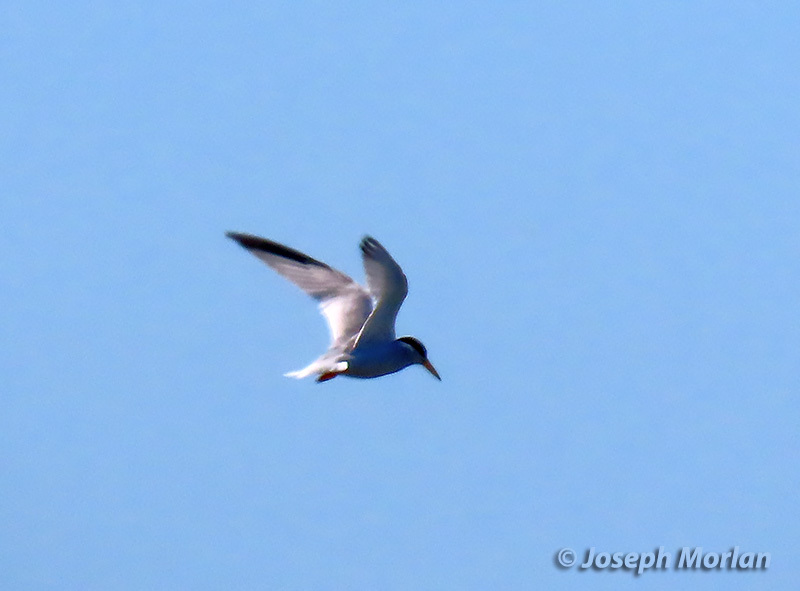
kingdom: Animalia
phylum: Chordata
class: Aves
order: Charadriiformes
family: Laridae
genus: Sternula
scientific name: Sternula antillarum
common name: Least tern
